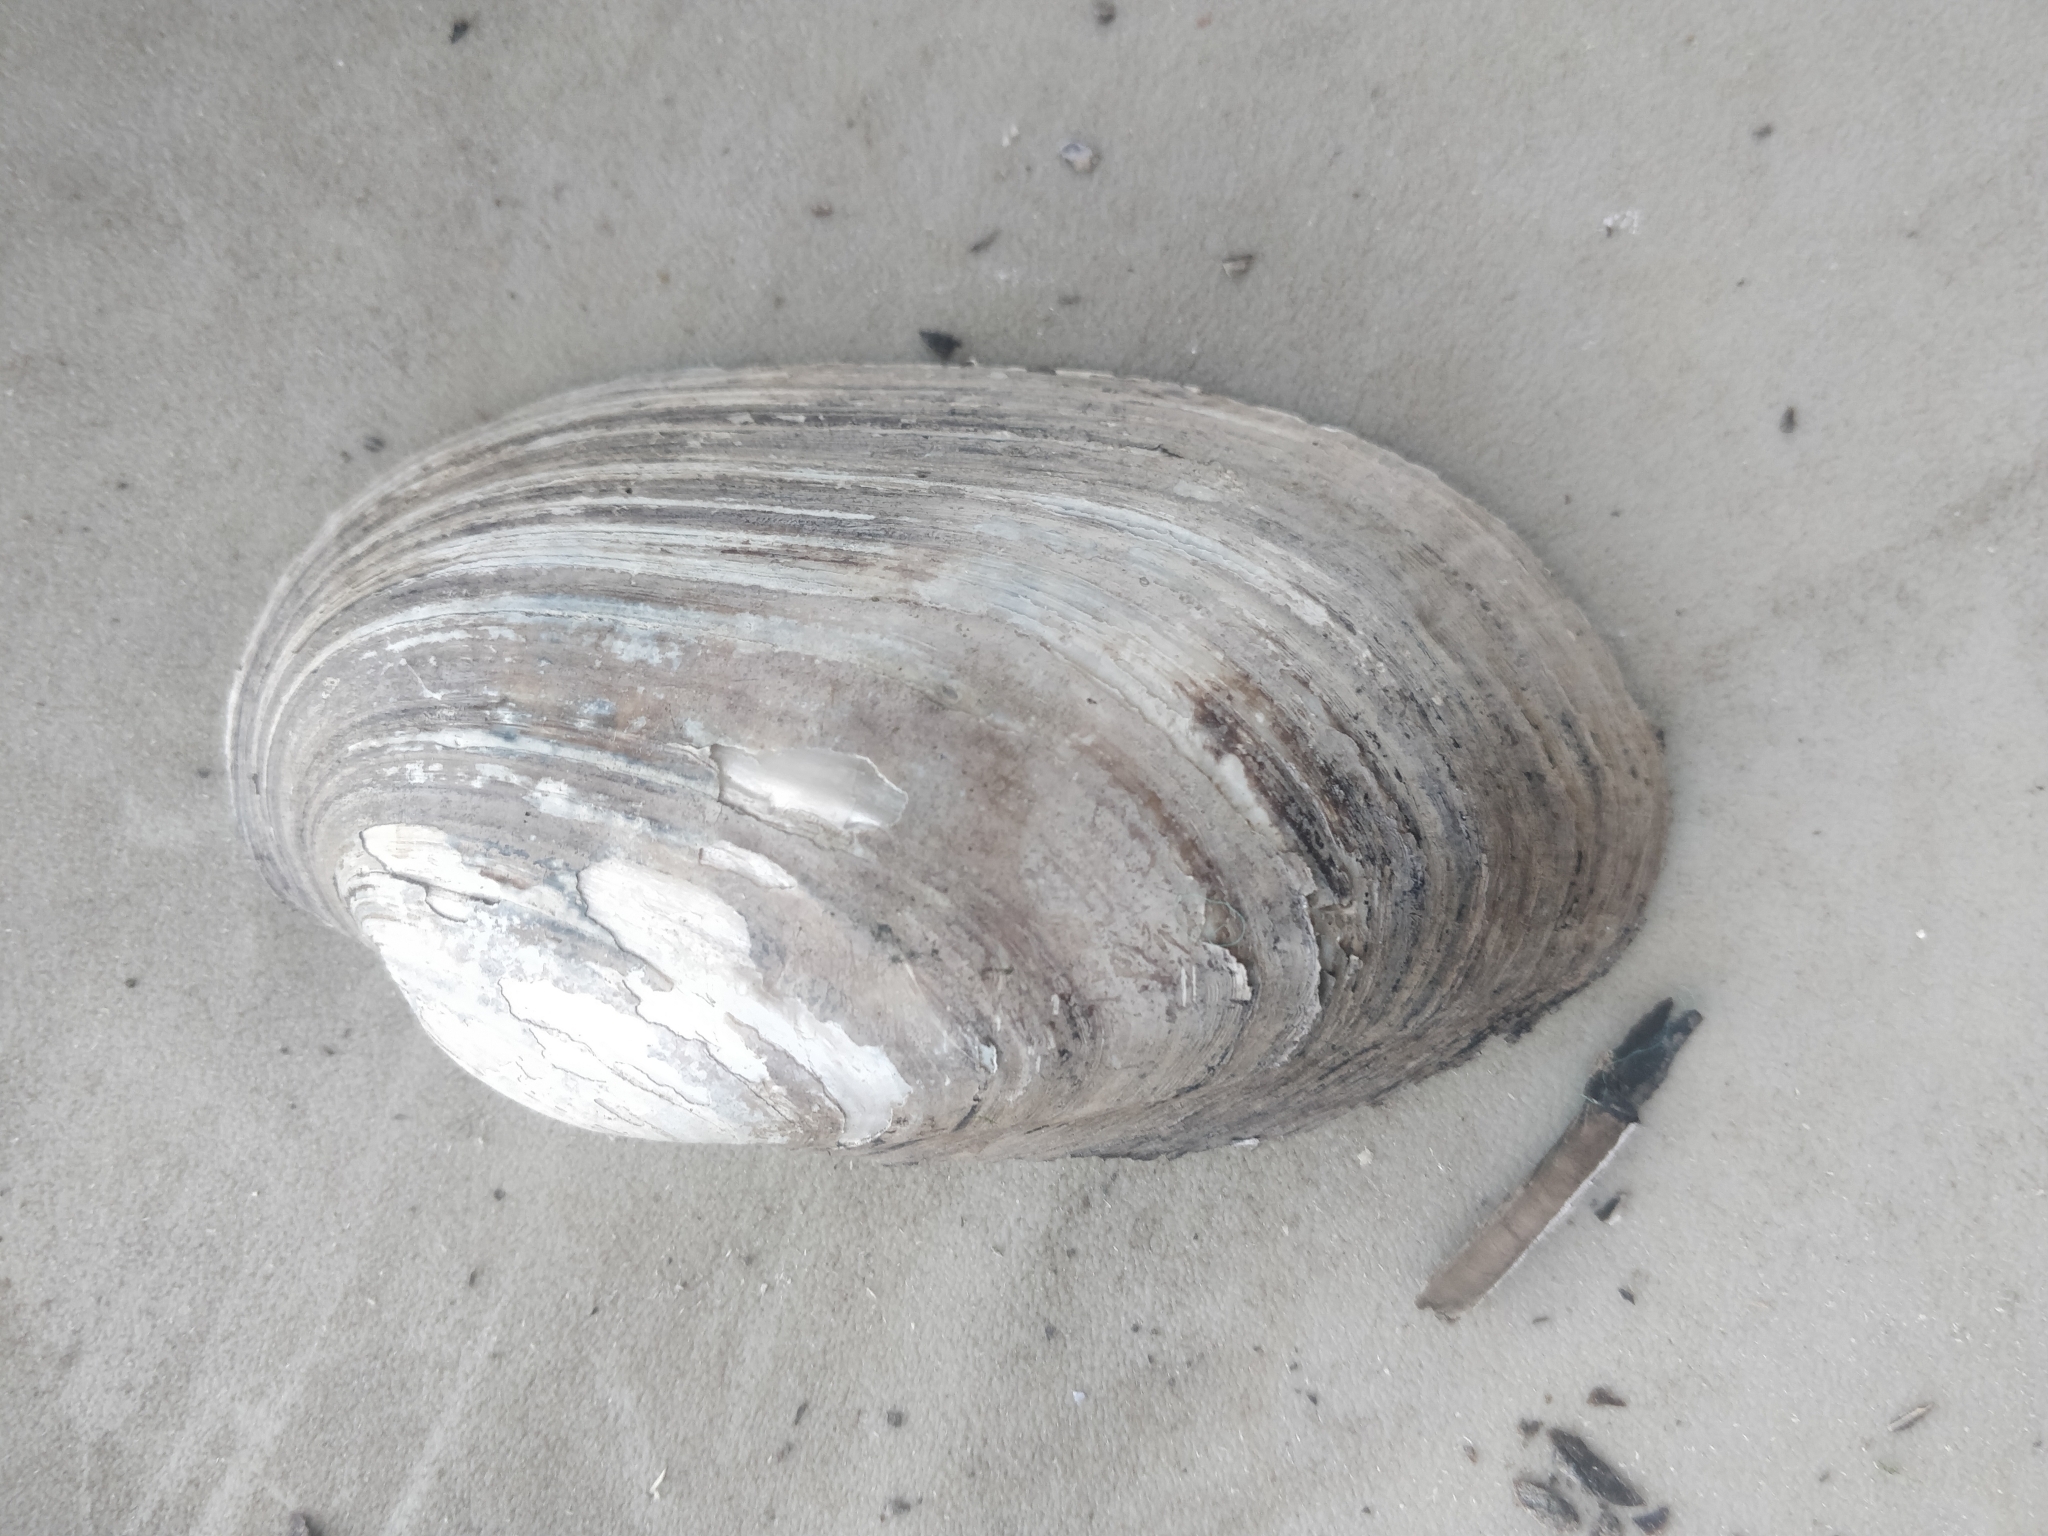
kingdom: Animalia
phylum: Mollusca
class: Bivalvia
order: Unionida
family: Unionidae
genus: Lampsilis
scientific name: Lampsilis siliquoidea
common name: Fatmucket
